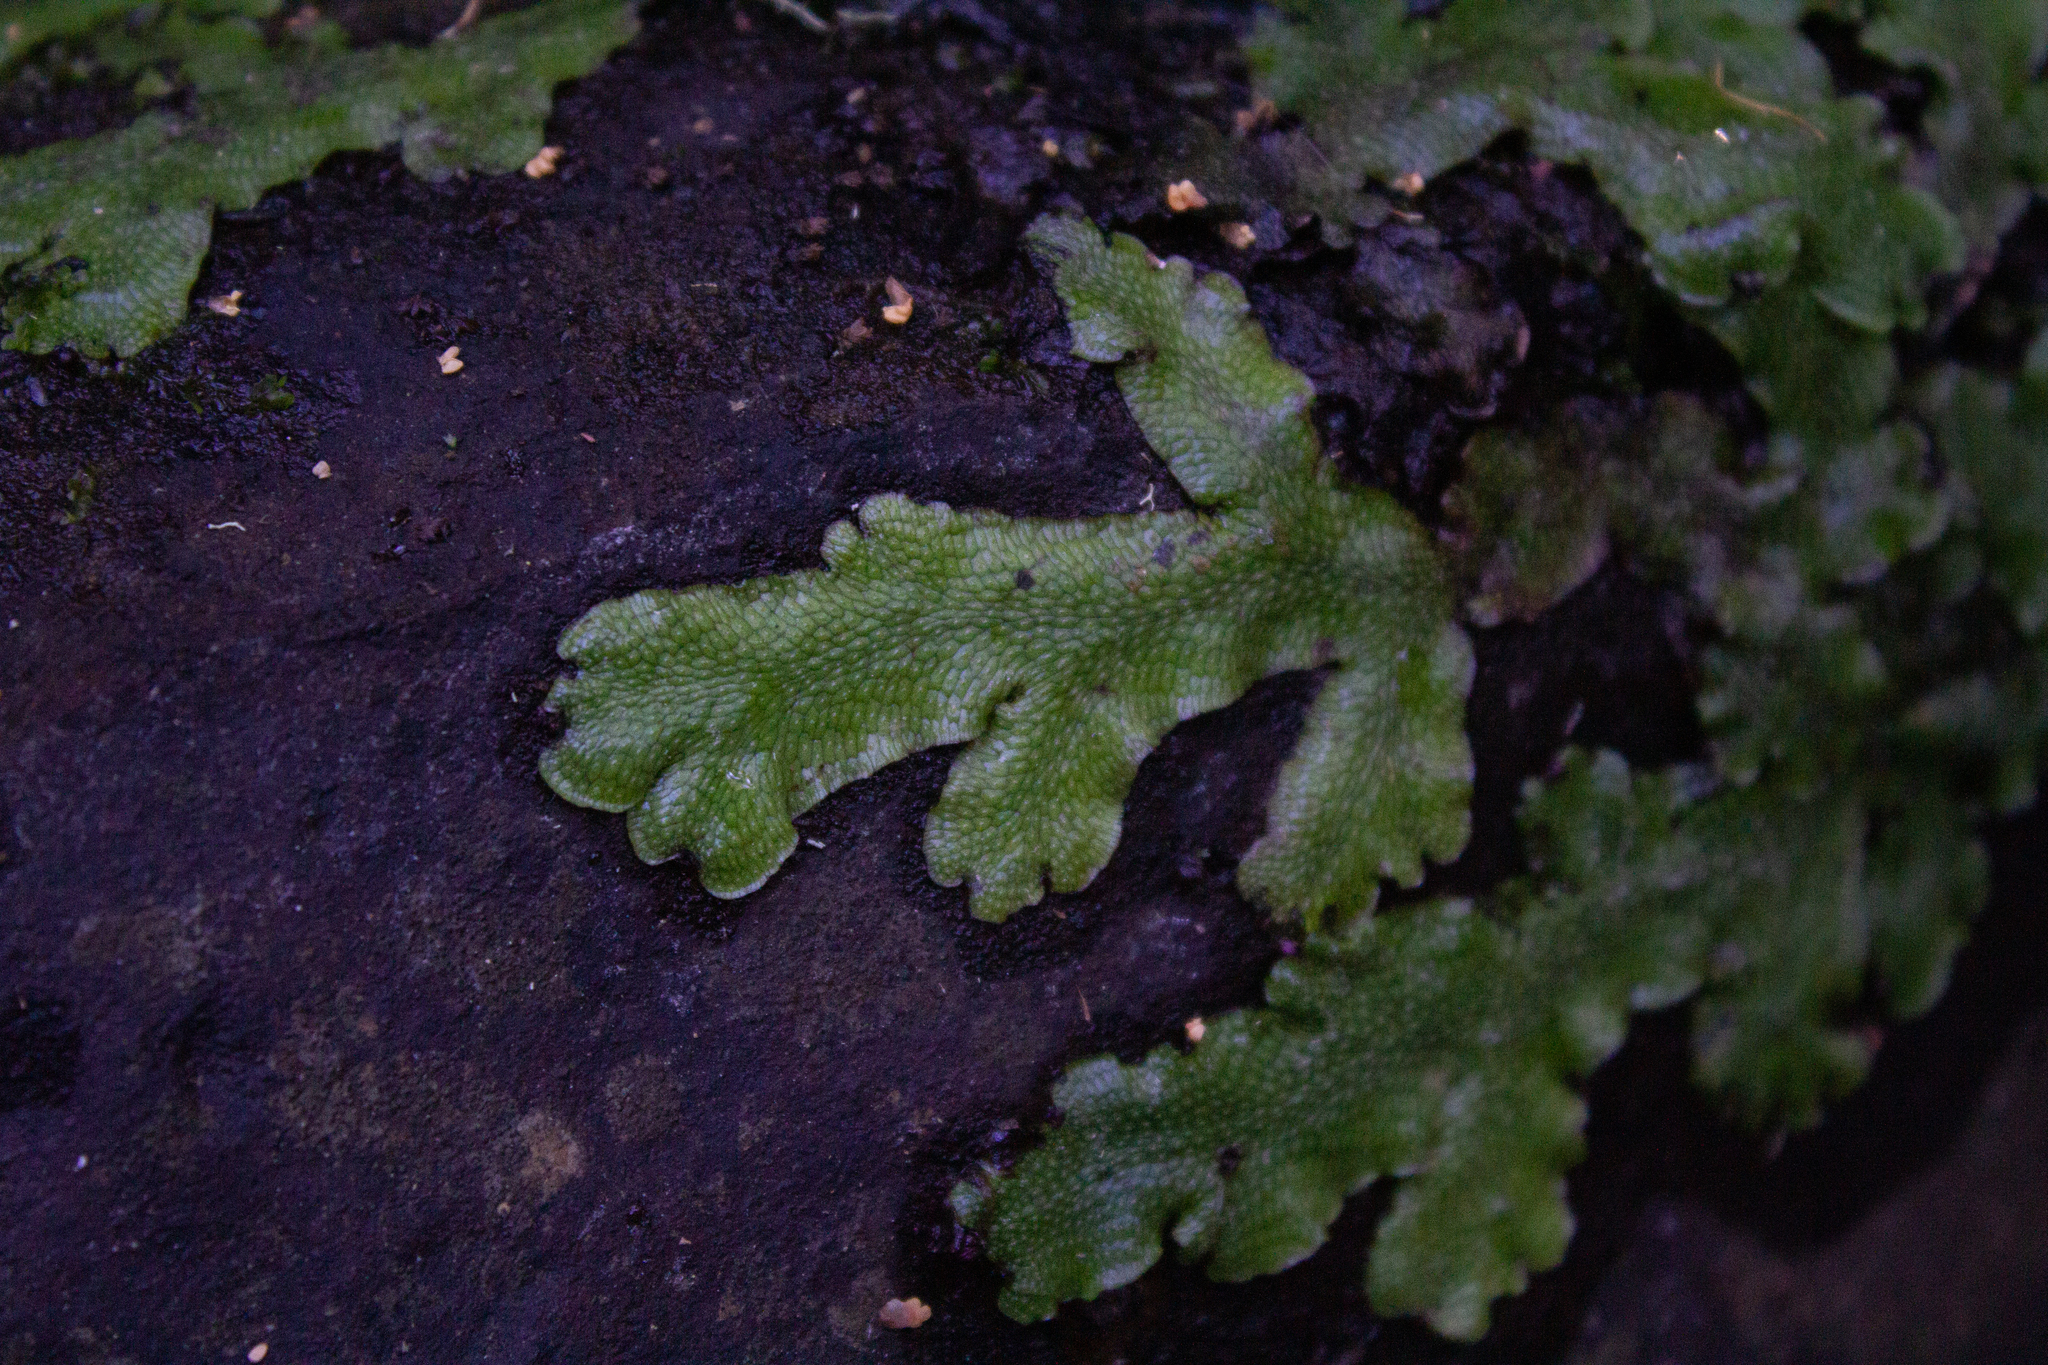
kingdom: Plantae
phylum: Marchantiophyta
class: Marchantiopsida
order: Marchantiales
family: Conocephalaceae
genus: Conocephalum
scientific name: Conocephalum salebrosum
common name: Cat-tongue liverwort
